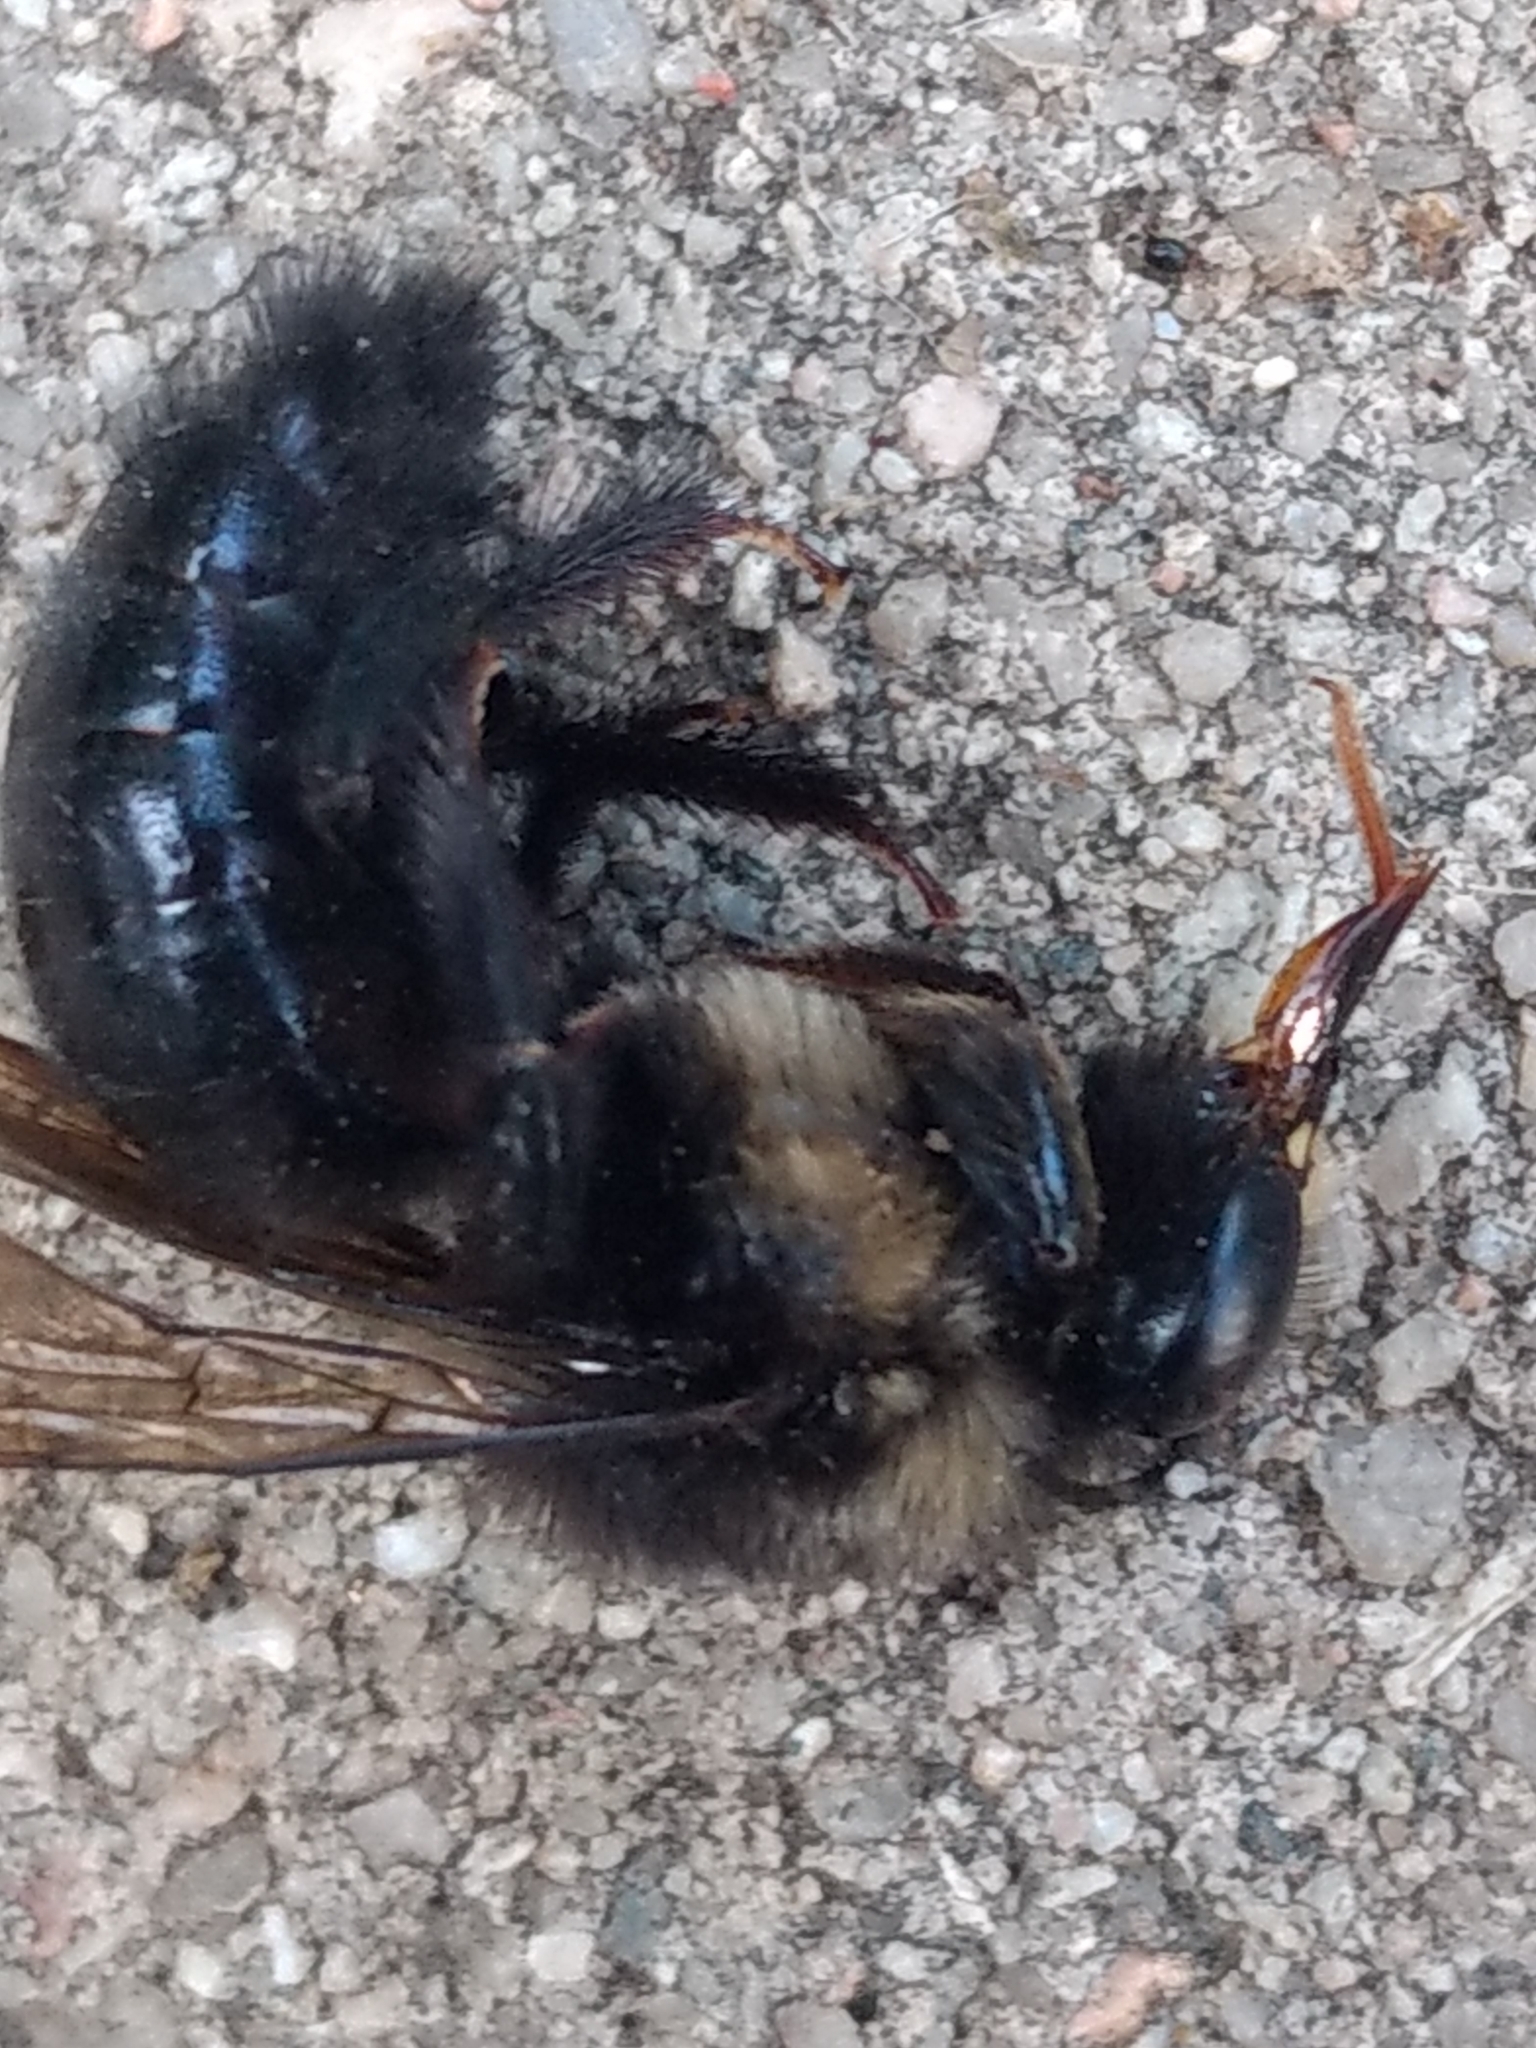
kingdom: Animalia
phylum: Arthropoda
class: Insecta
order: Hymenoptera
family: Apidae
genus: Xylocopa
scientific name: Xylocopa tabaniformis
